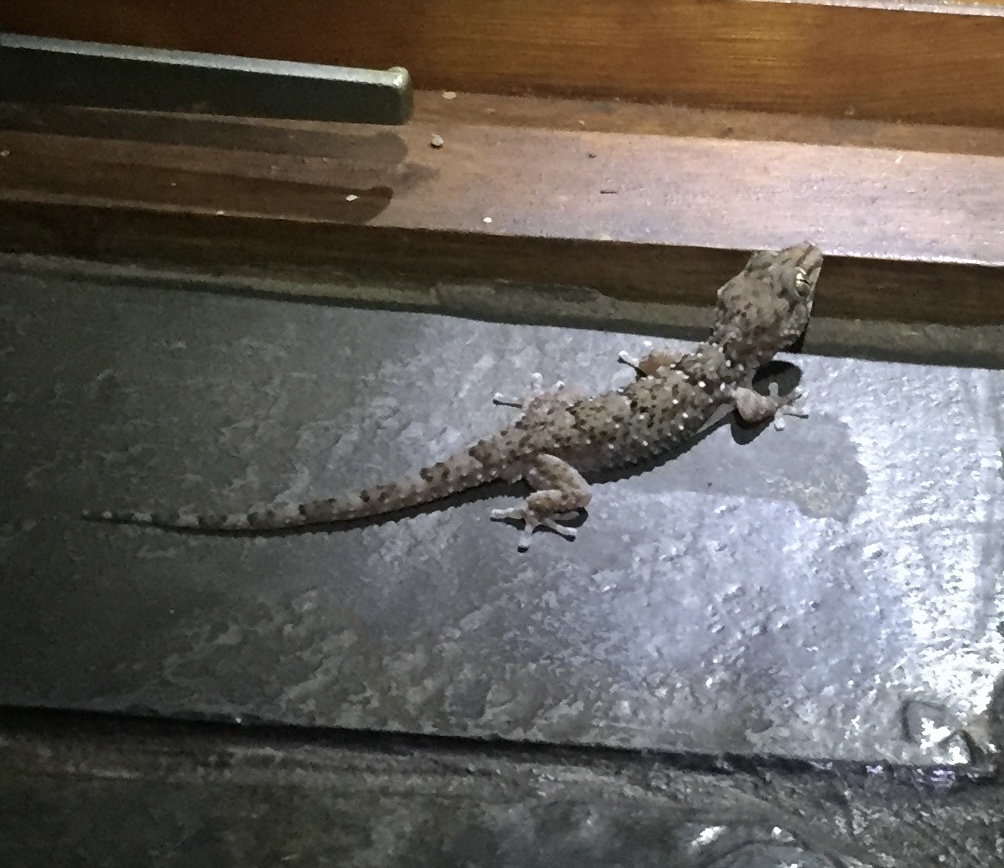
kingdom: Animalia
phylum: Chordata
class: Squamata
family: Gekkonidae
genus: Chondrodactylus
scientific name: Chondrodactylus turneri
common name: Turner’s gecko
